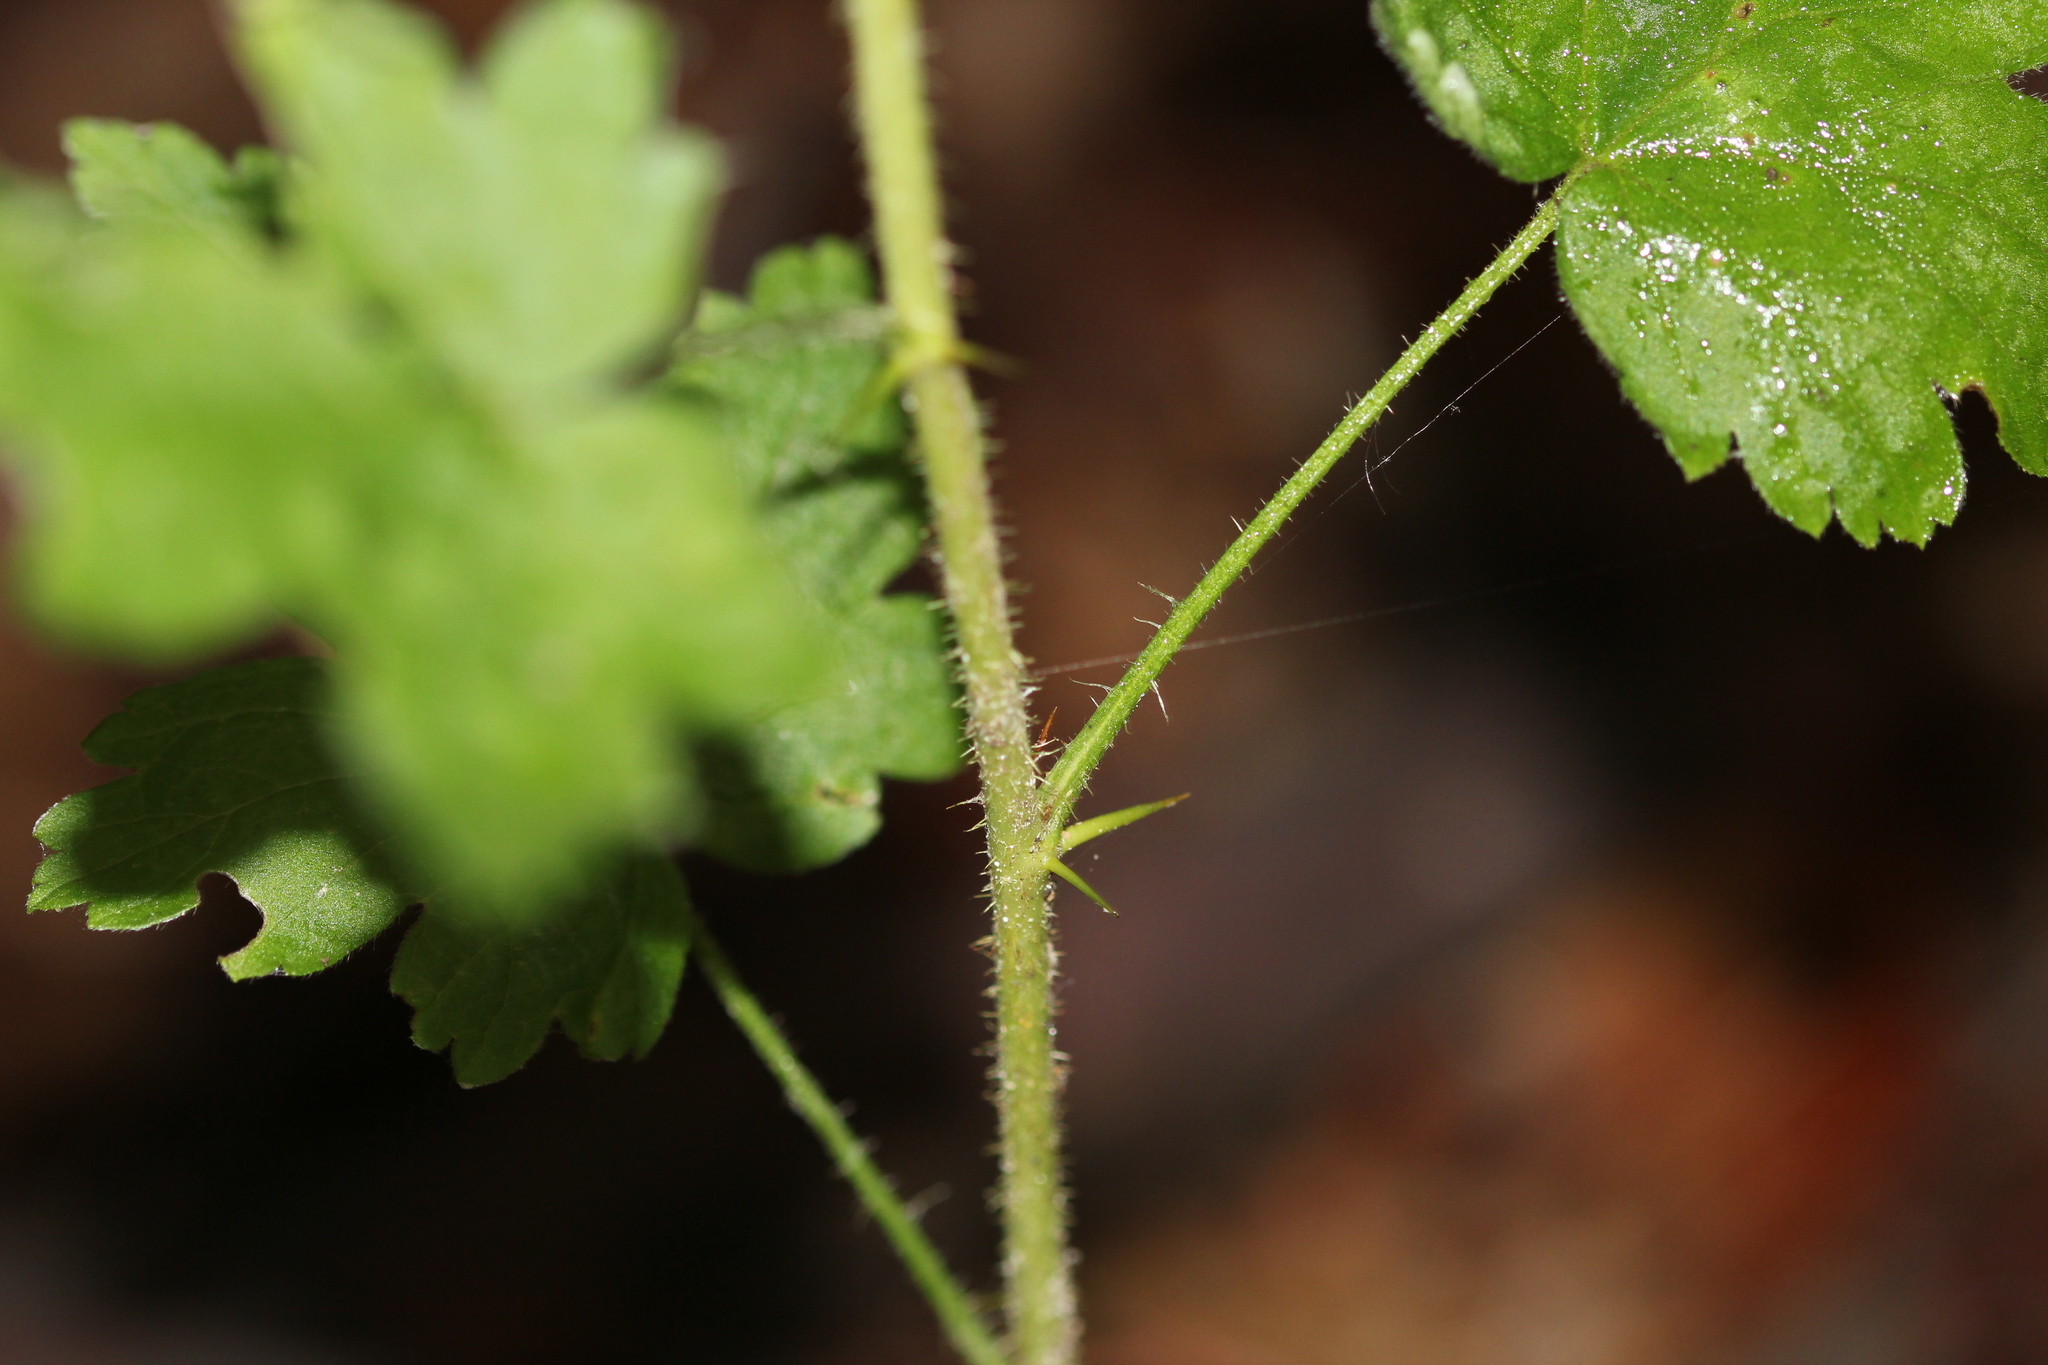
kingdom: Plantae
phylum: Tracheophyta
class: Magnoliopsida
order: Saxifragales
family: Grossulariaceae
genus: Ribes
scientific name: Ribes cynosbati
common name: American gooseberry
